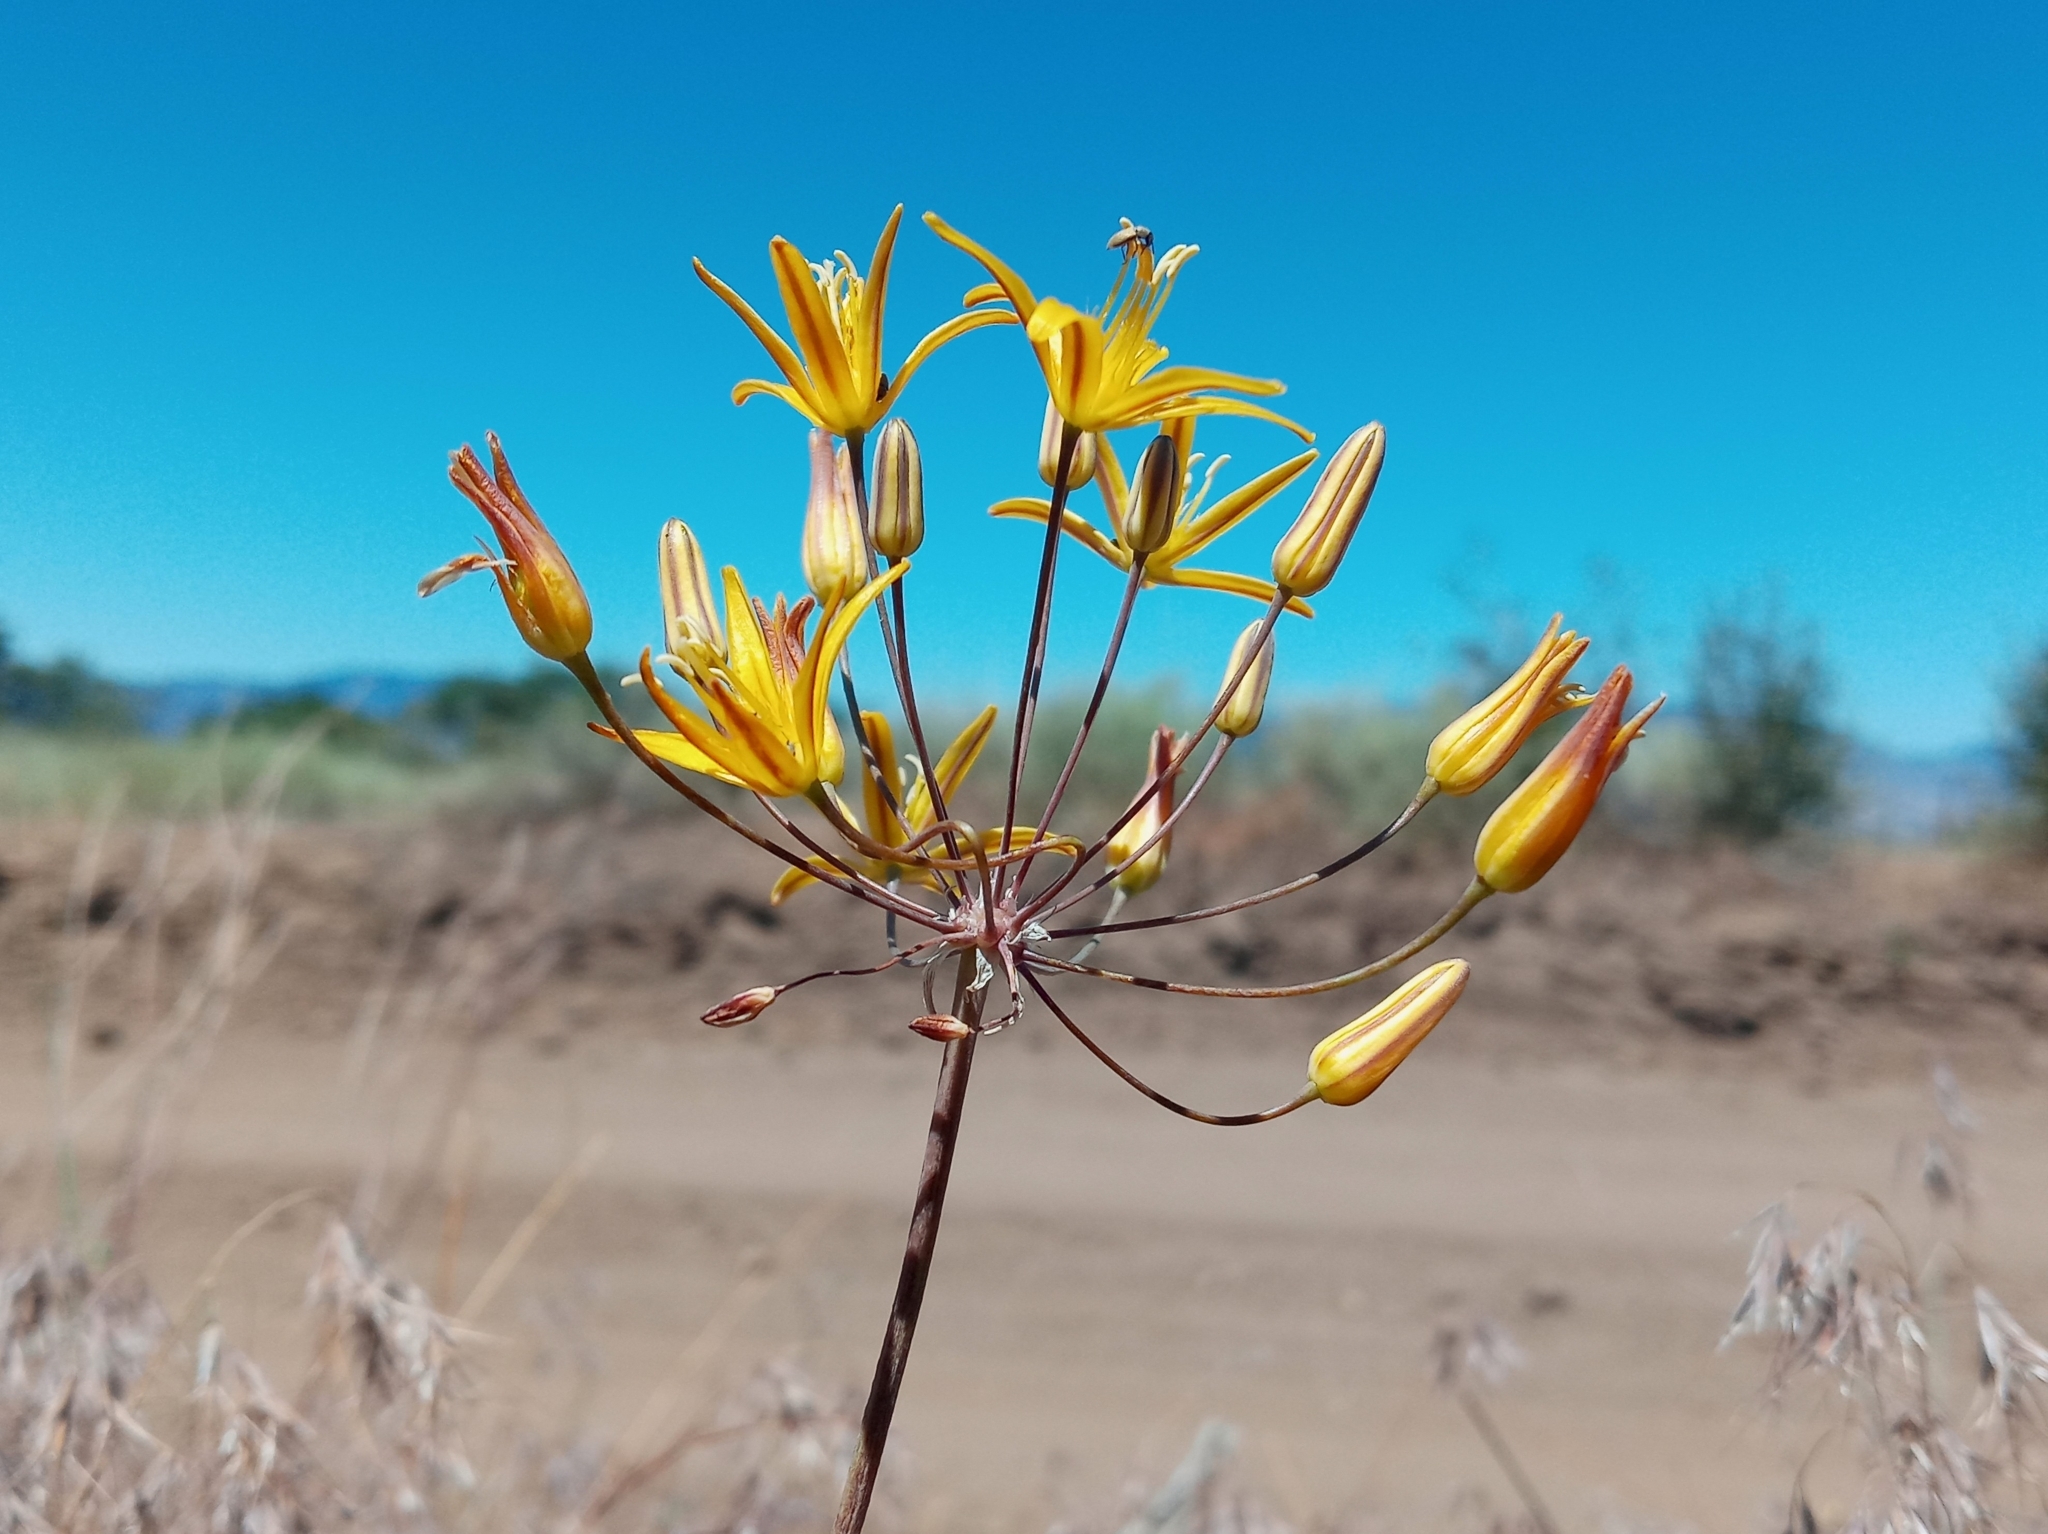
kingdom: Plantae
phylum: Tracheophyta
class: Liliopsida
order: Asparagales
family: Asparagaceae
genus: Bloomeria
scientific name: Bloomeria crocea
